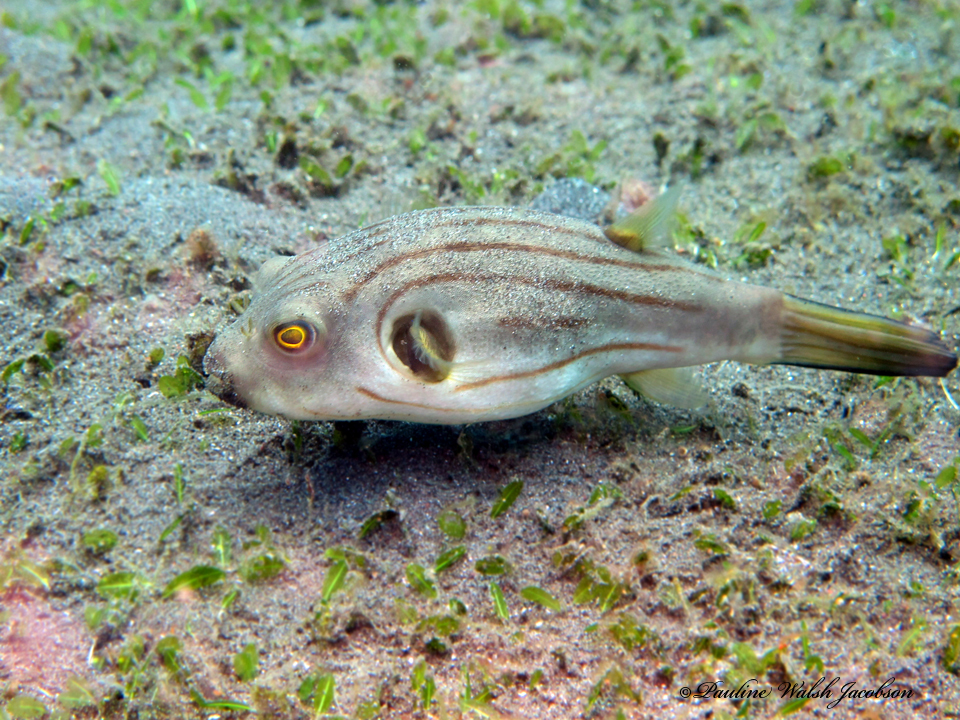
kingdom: Animalia
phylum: Chordata
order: Tetraodontiformes
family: Tetraodontidae
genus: Arothron
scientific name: Arothron manilensis
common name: Narrow-lined puffer
